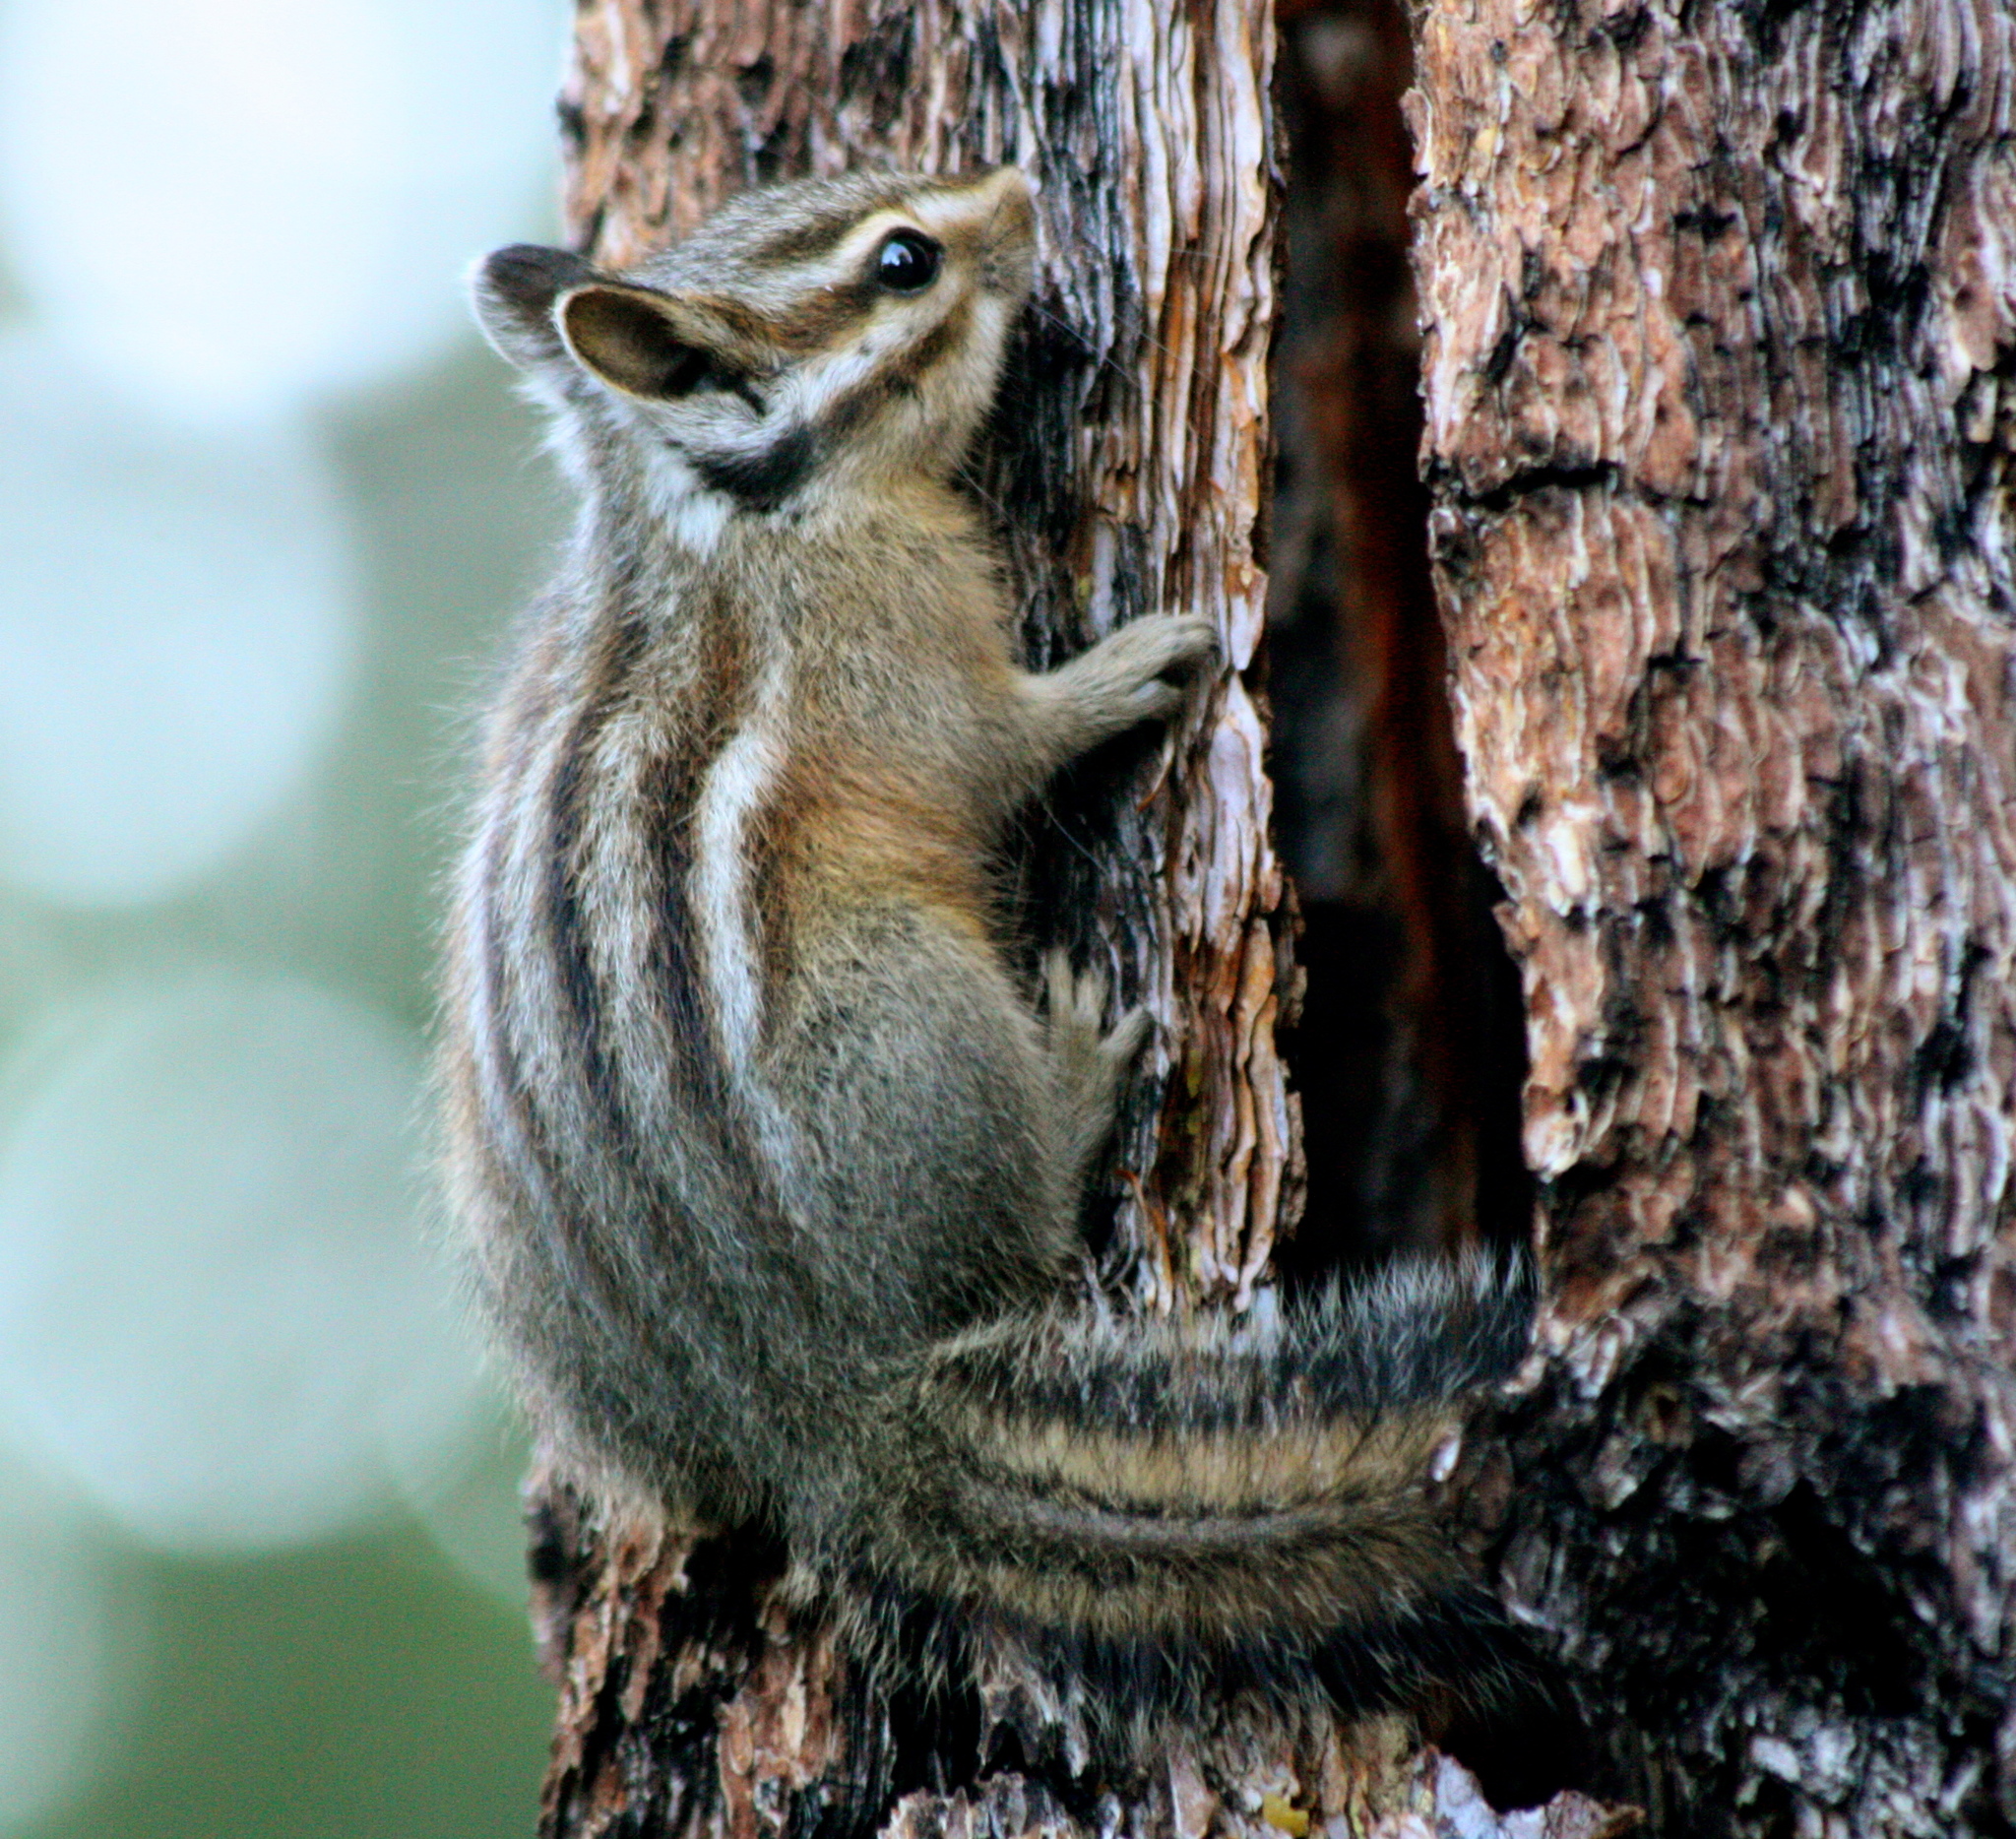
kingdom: Animalia
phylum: Chordata
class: Mammalia
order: Rodentia
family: Sciuridae
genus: Tamias
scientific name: Tamias quadrimaculatus
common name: Long-eared chipmunk
